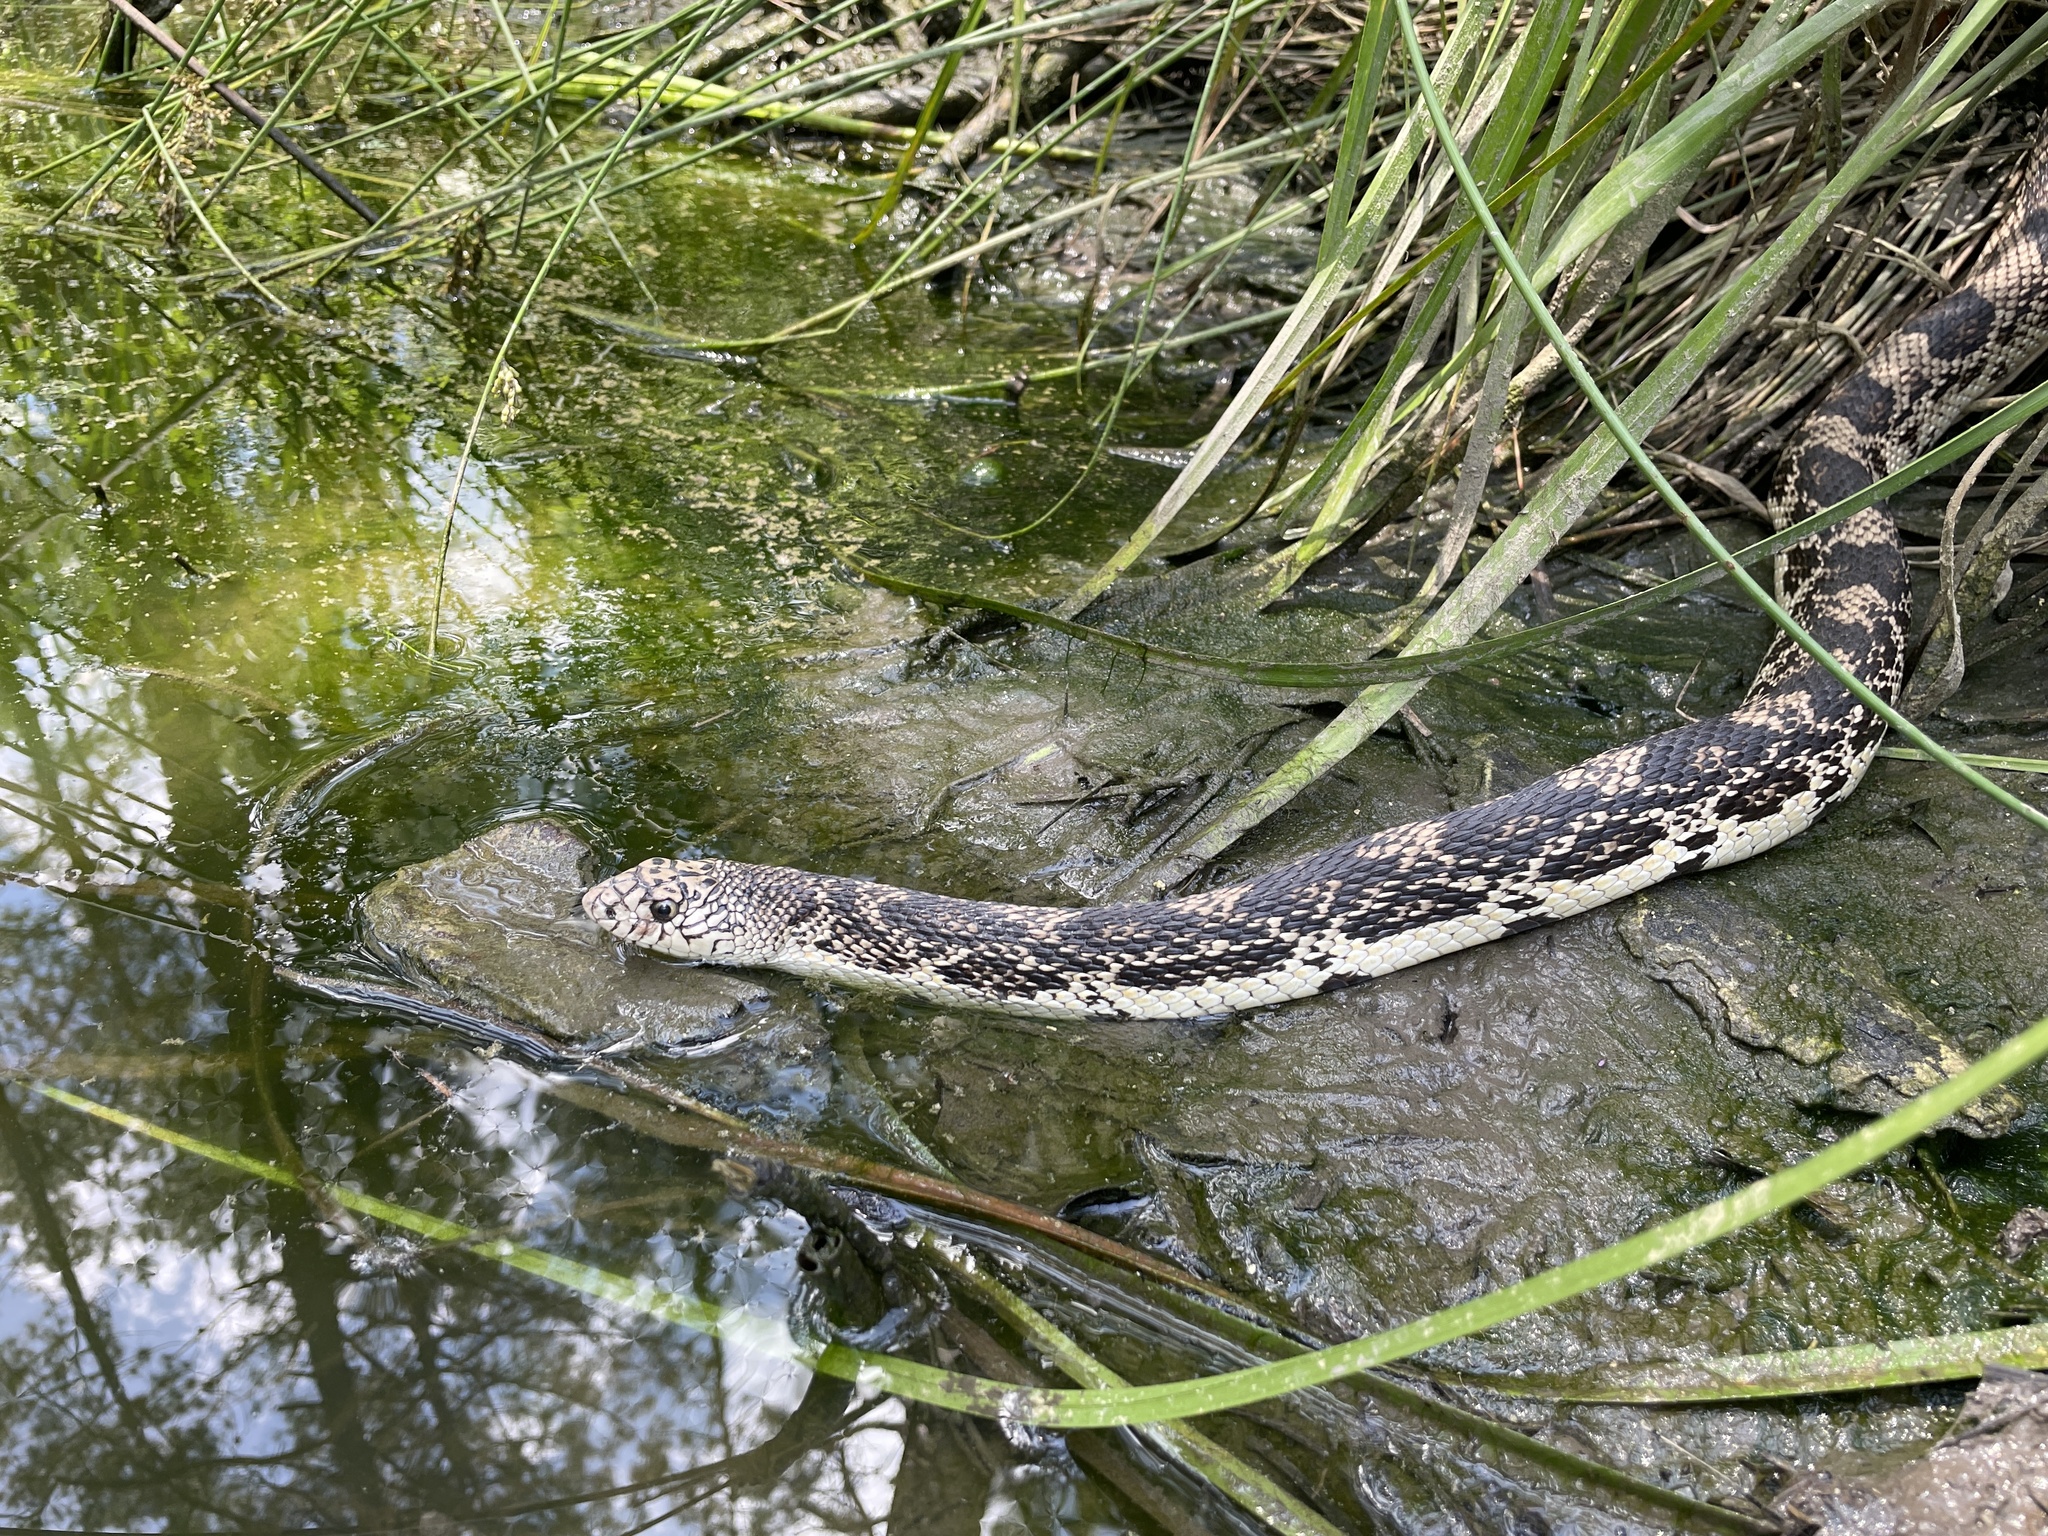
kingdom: Animalia
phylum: Chordata
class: Squamata
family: Colubridae
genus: Pituophis
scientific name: Pituophis melanoleucus
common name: Pine snake
